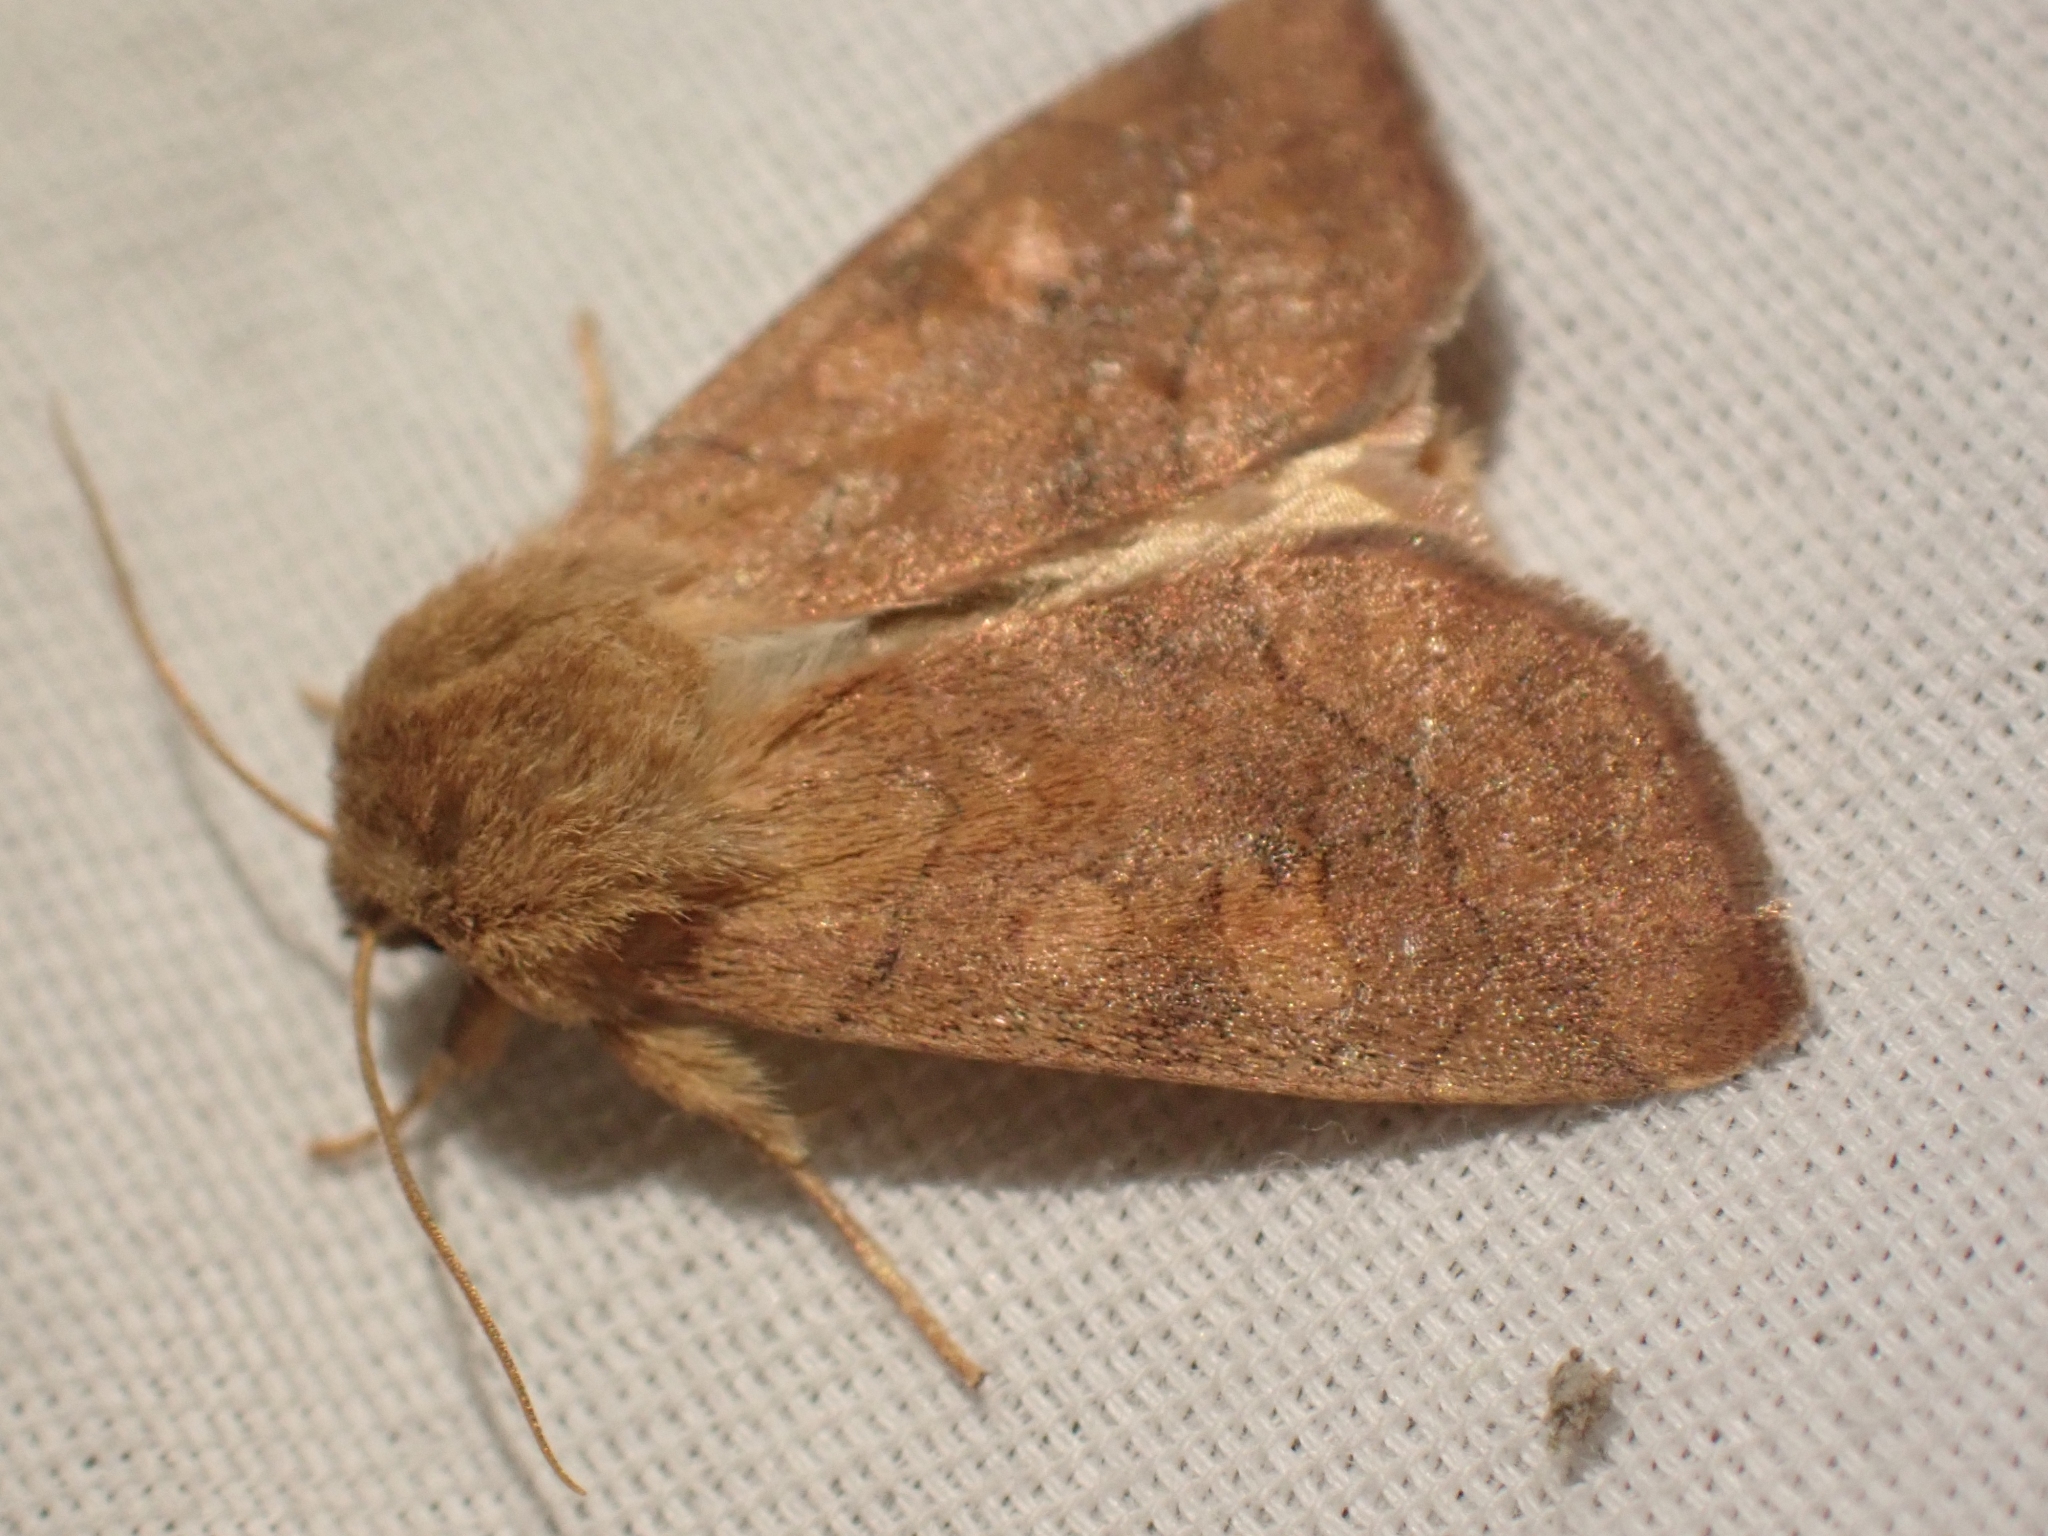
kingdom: Animalia
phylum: Arthropoda
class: Insecta
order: Lepidoptera
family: Noctuidae
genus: Enargia
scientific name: Enargia decolor
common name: Aspen twoleaf tier moth
